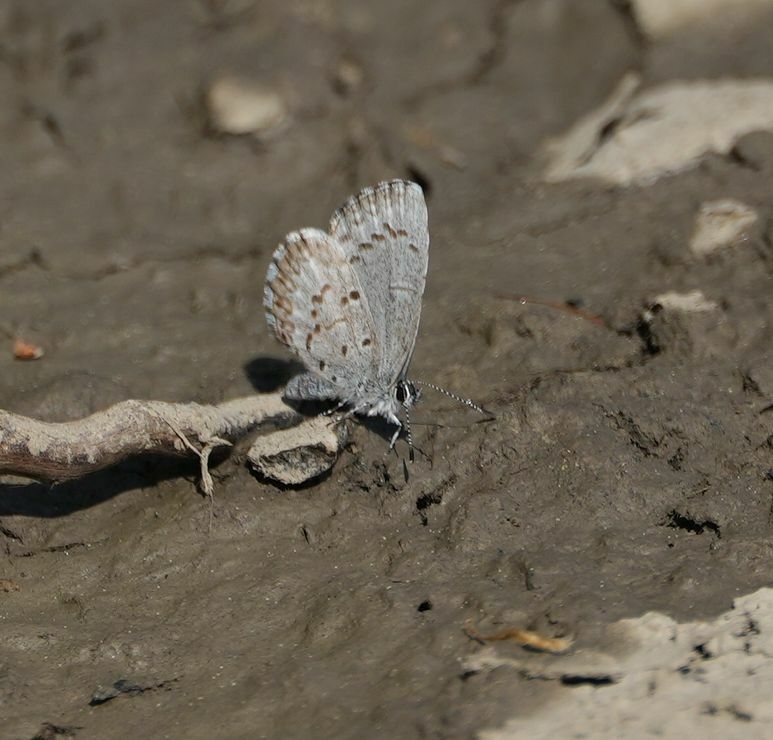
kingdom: Animalia
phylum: Arthropoda
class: Insecta
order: Lepidoptera
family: Lycaenidae
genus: Celastrina
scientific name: Celastrina lucia
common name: Lucia azure
